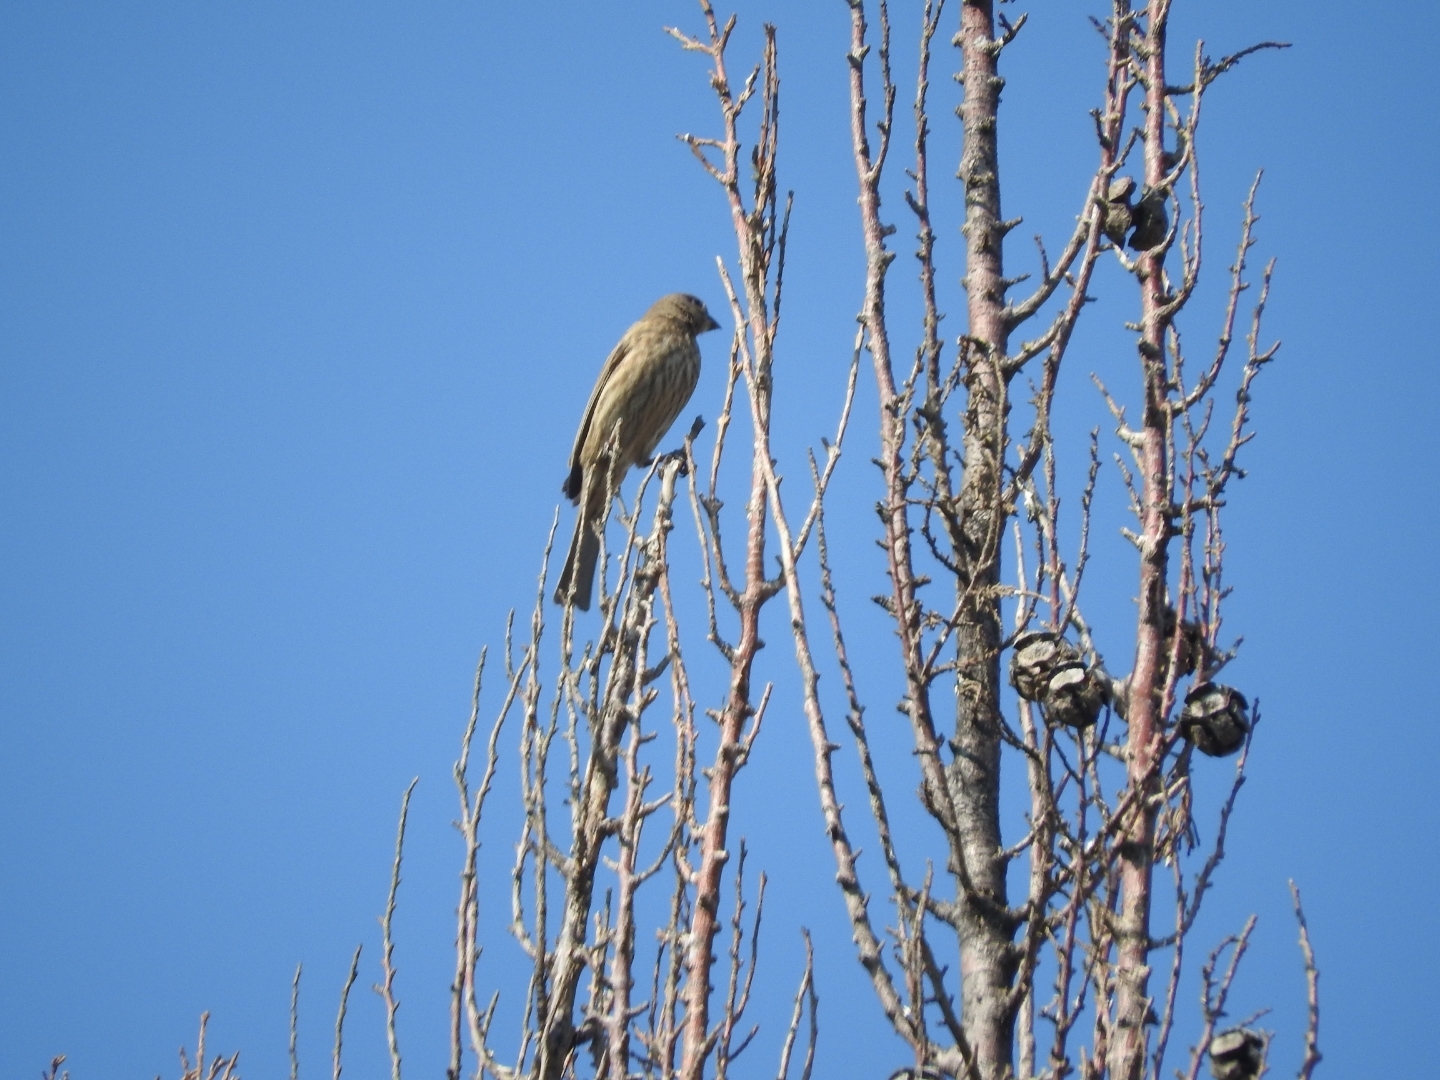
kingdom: Animalia
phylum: Chordata
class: Aves
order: Passeriformes
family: Fringillidae
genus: Haemorhous
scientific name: Haemorhous mexicanus
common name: House finch
